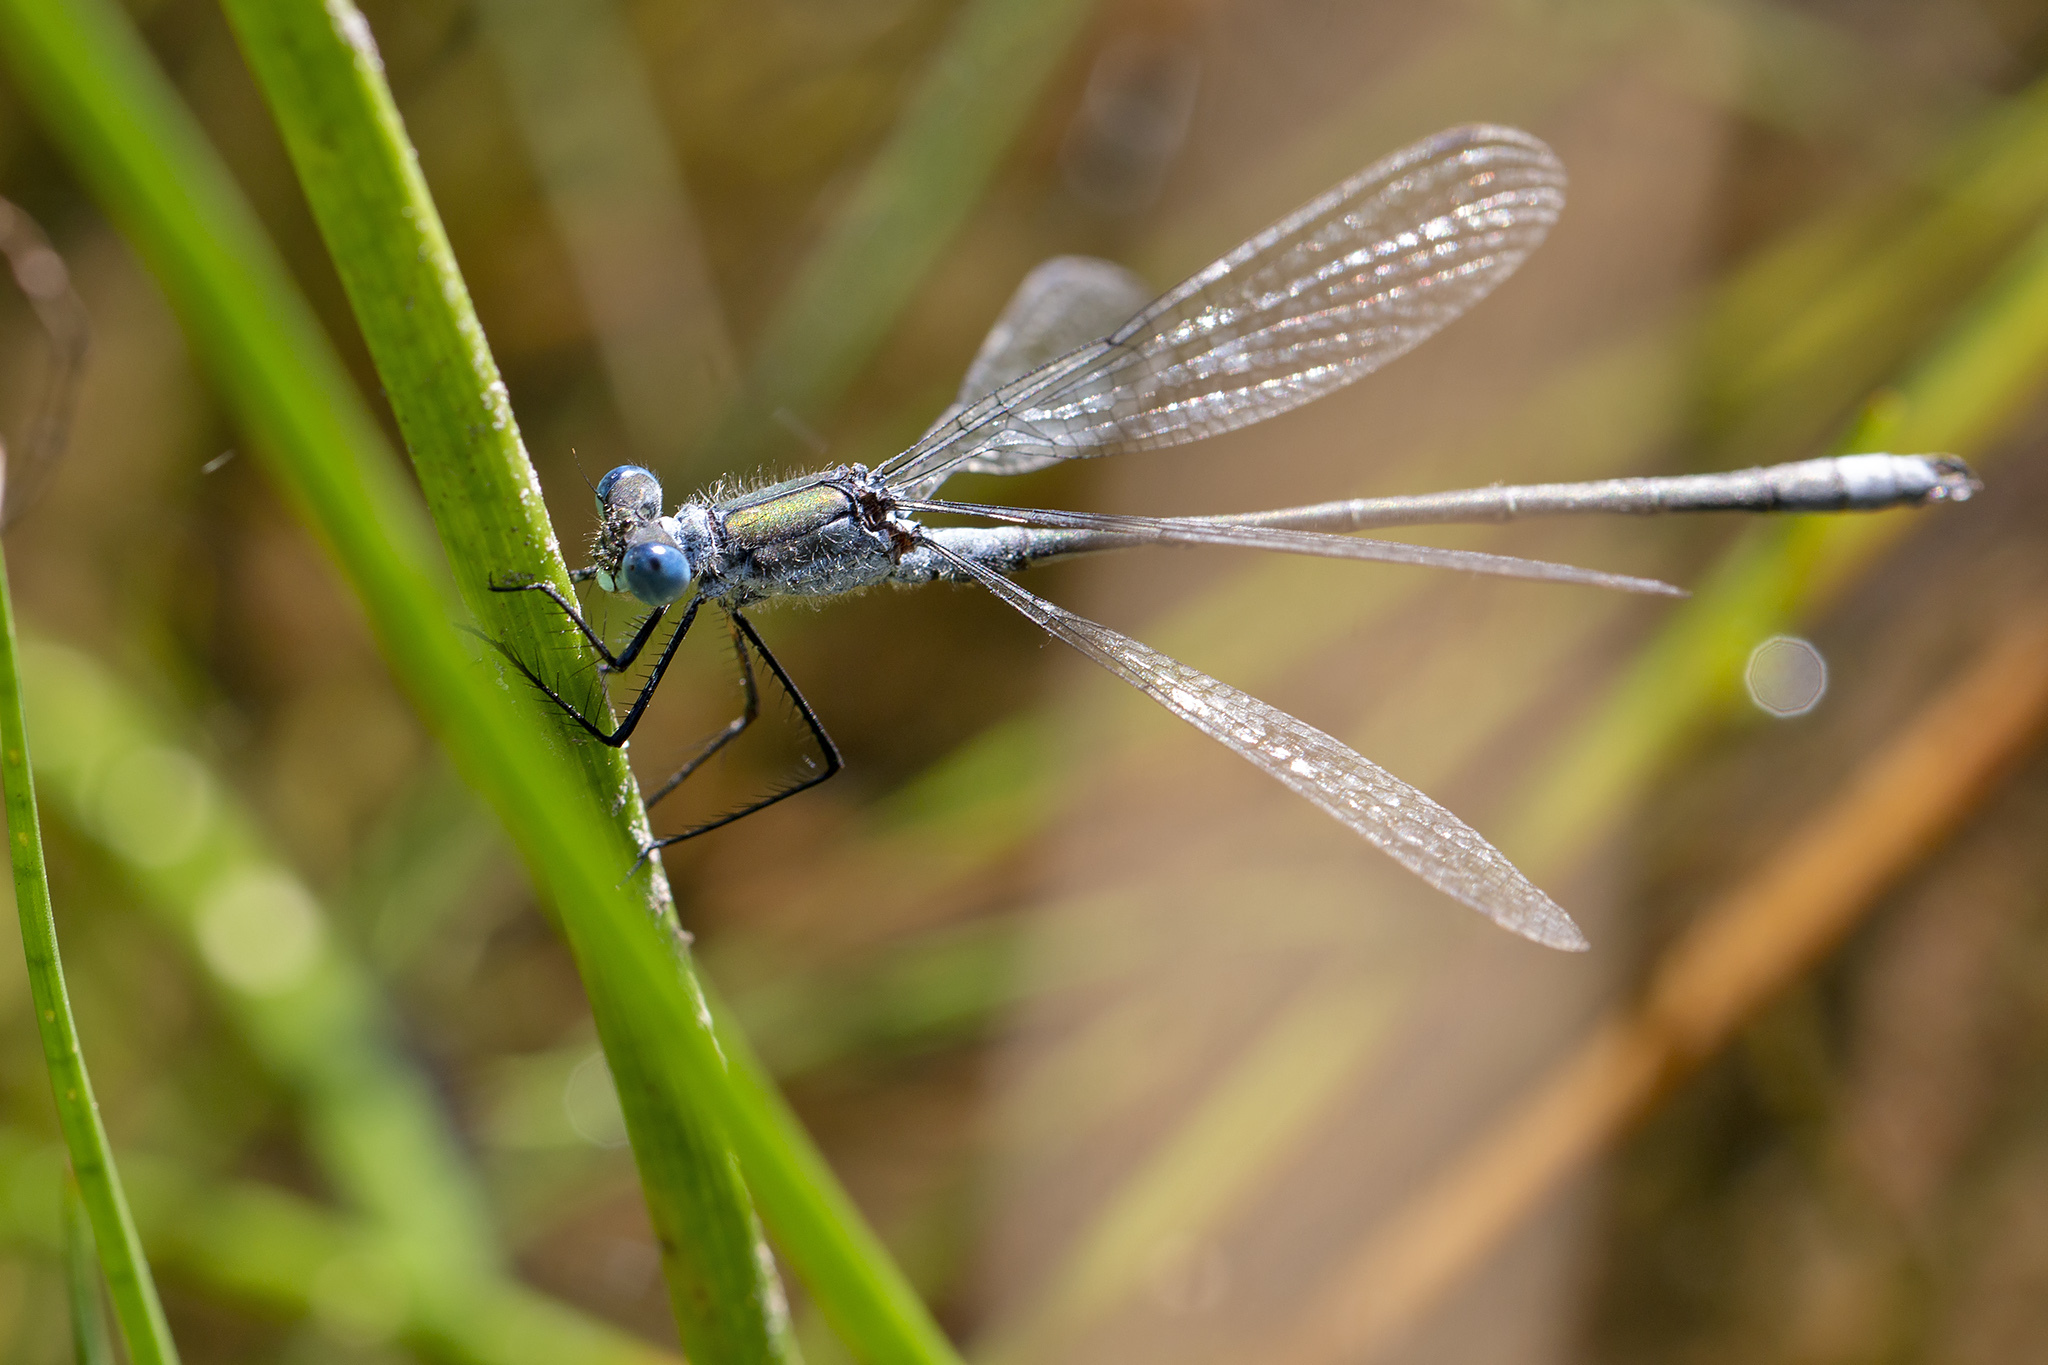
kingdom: Animalia
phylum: Arthropoda
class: Insecta
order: Odonata
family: Lestidae
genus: Lestes
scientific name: Lestes sponsa
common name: Common spreadwing
